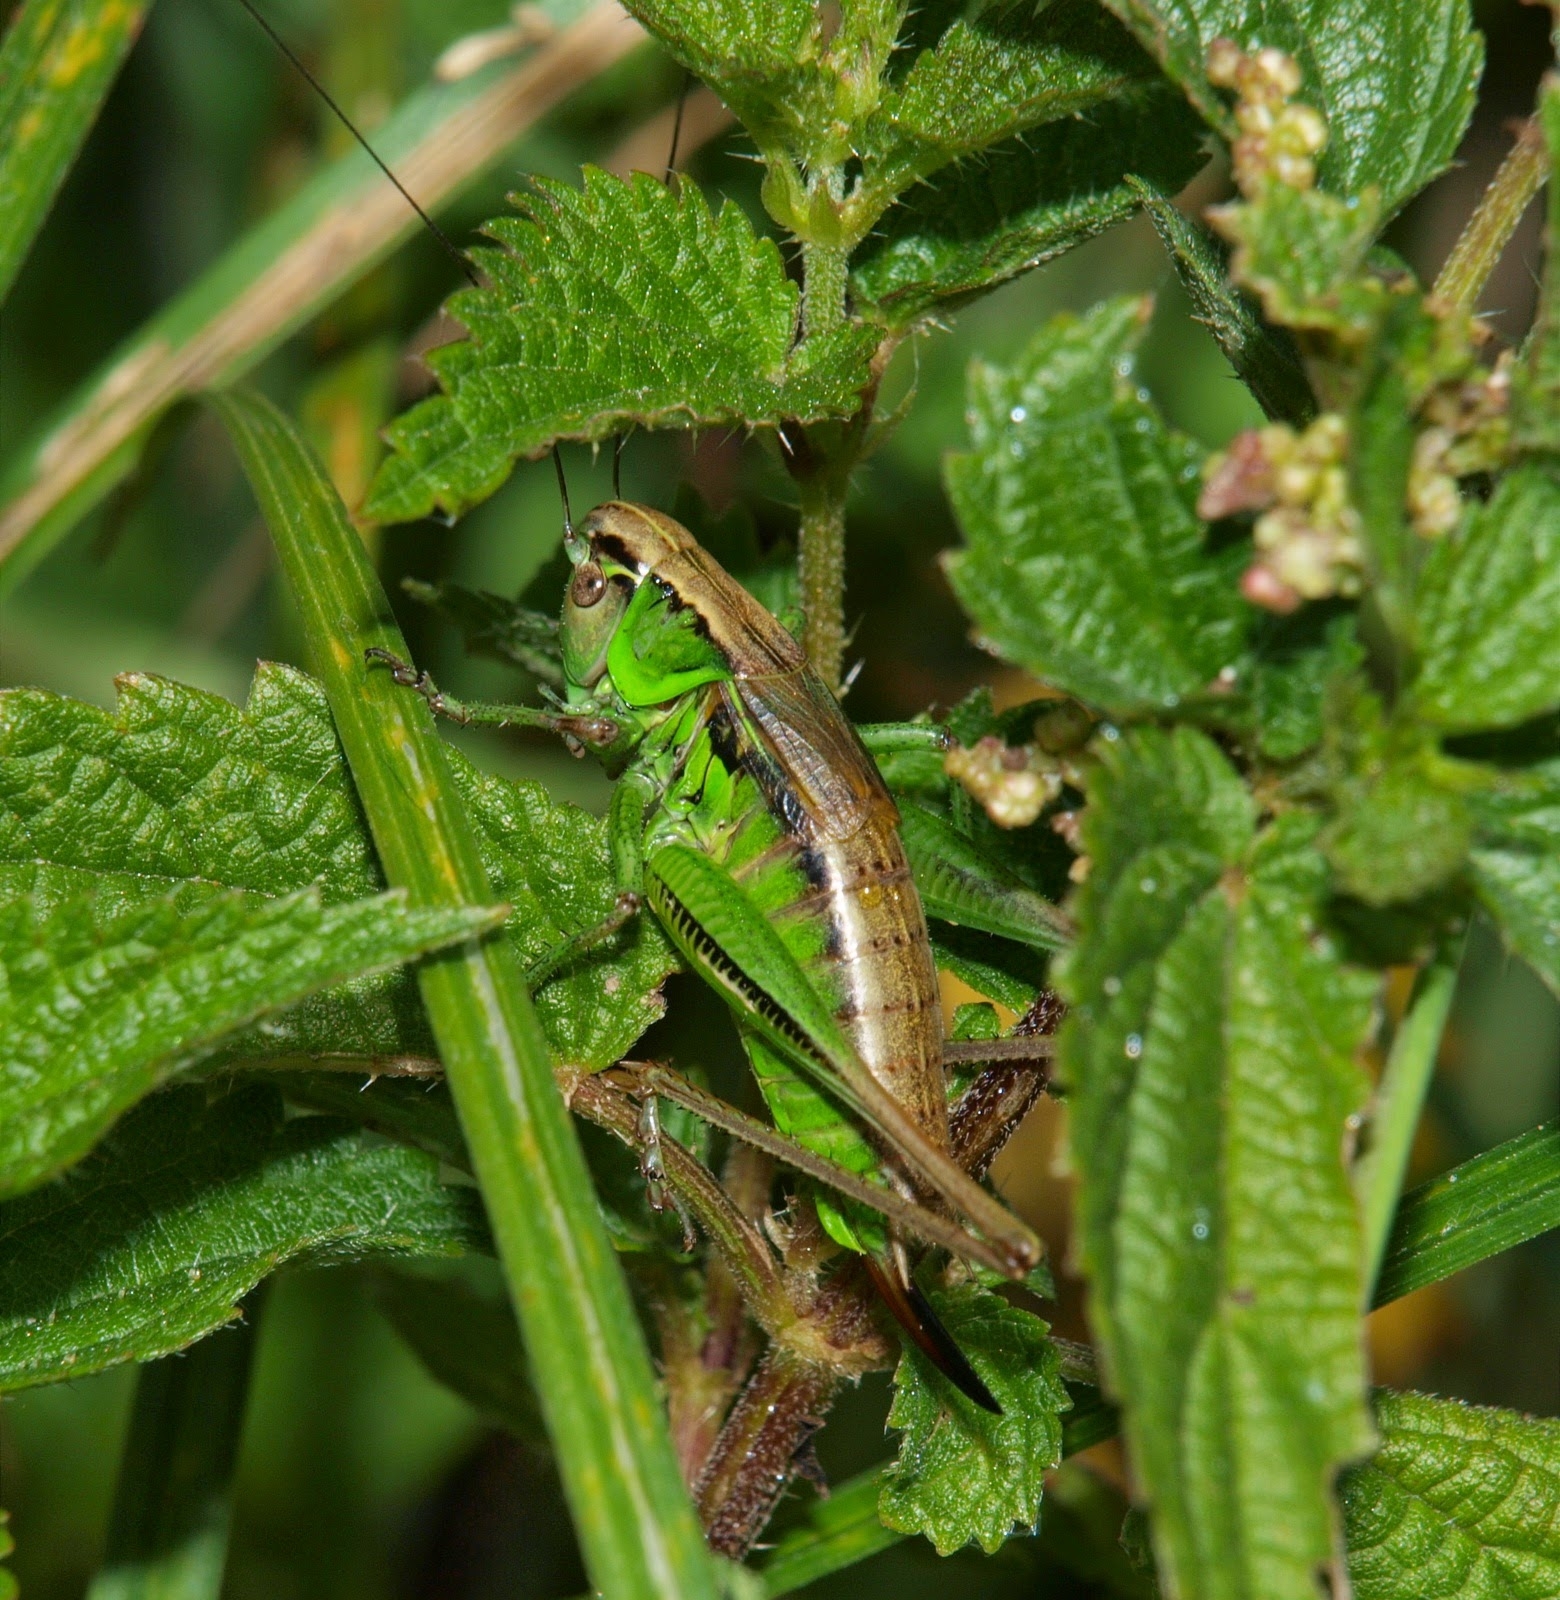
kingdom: Animalia
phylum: Arthropoda
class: Insecta
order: Orthoptera
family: Tettigoniidae
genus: Roeseliana
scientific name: Roeseliana roeselii
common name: Roesel's bush cricket
